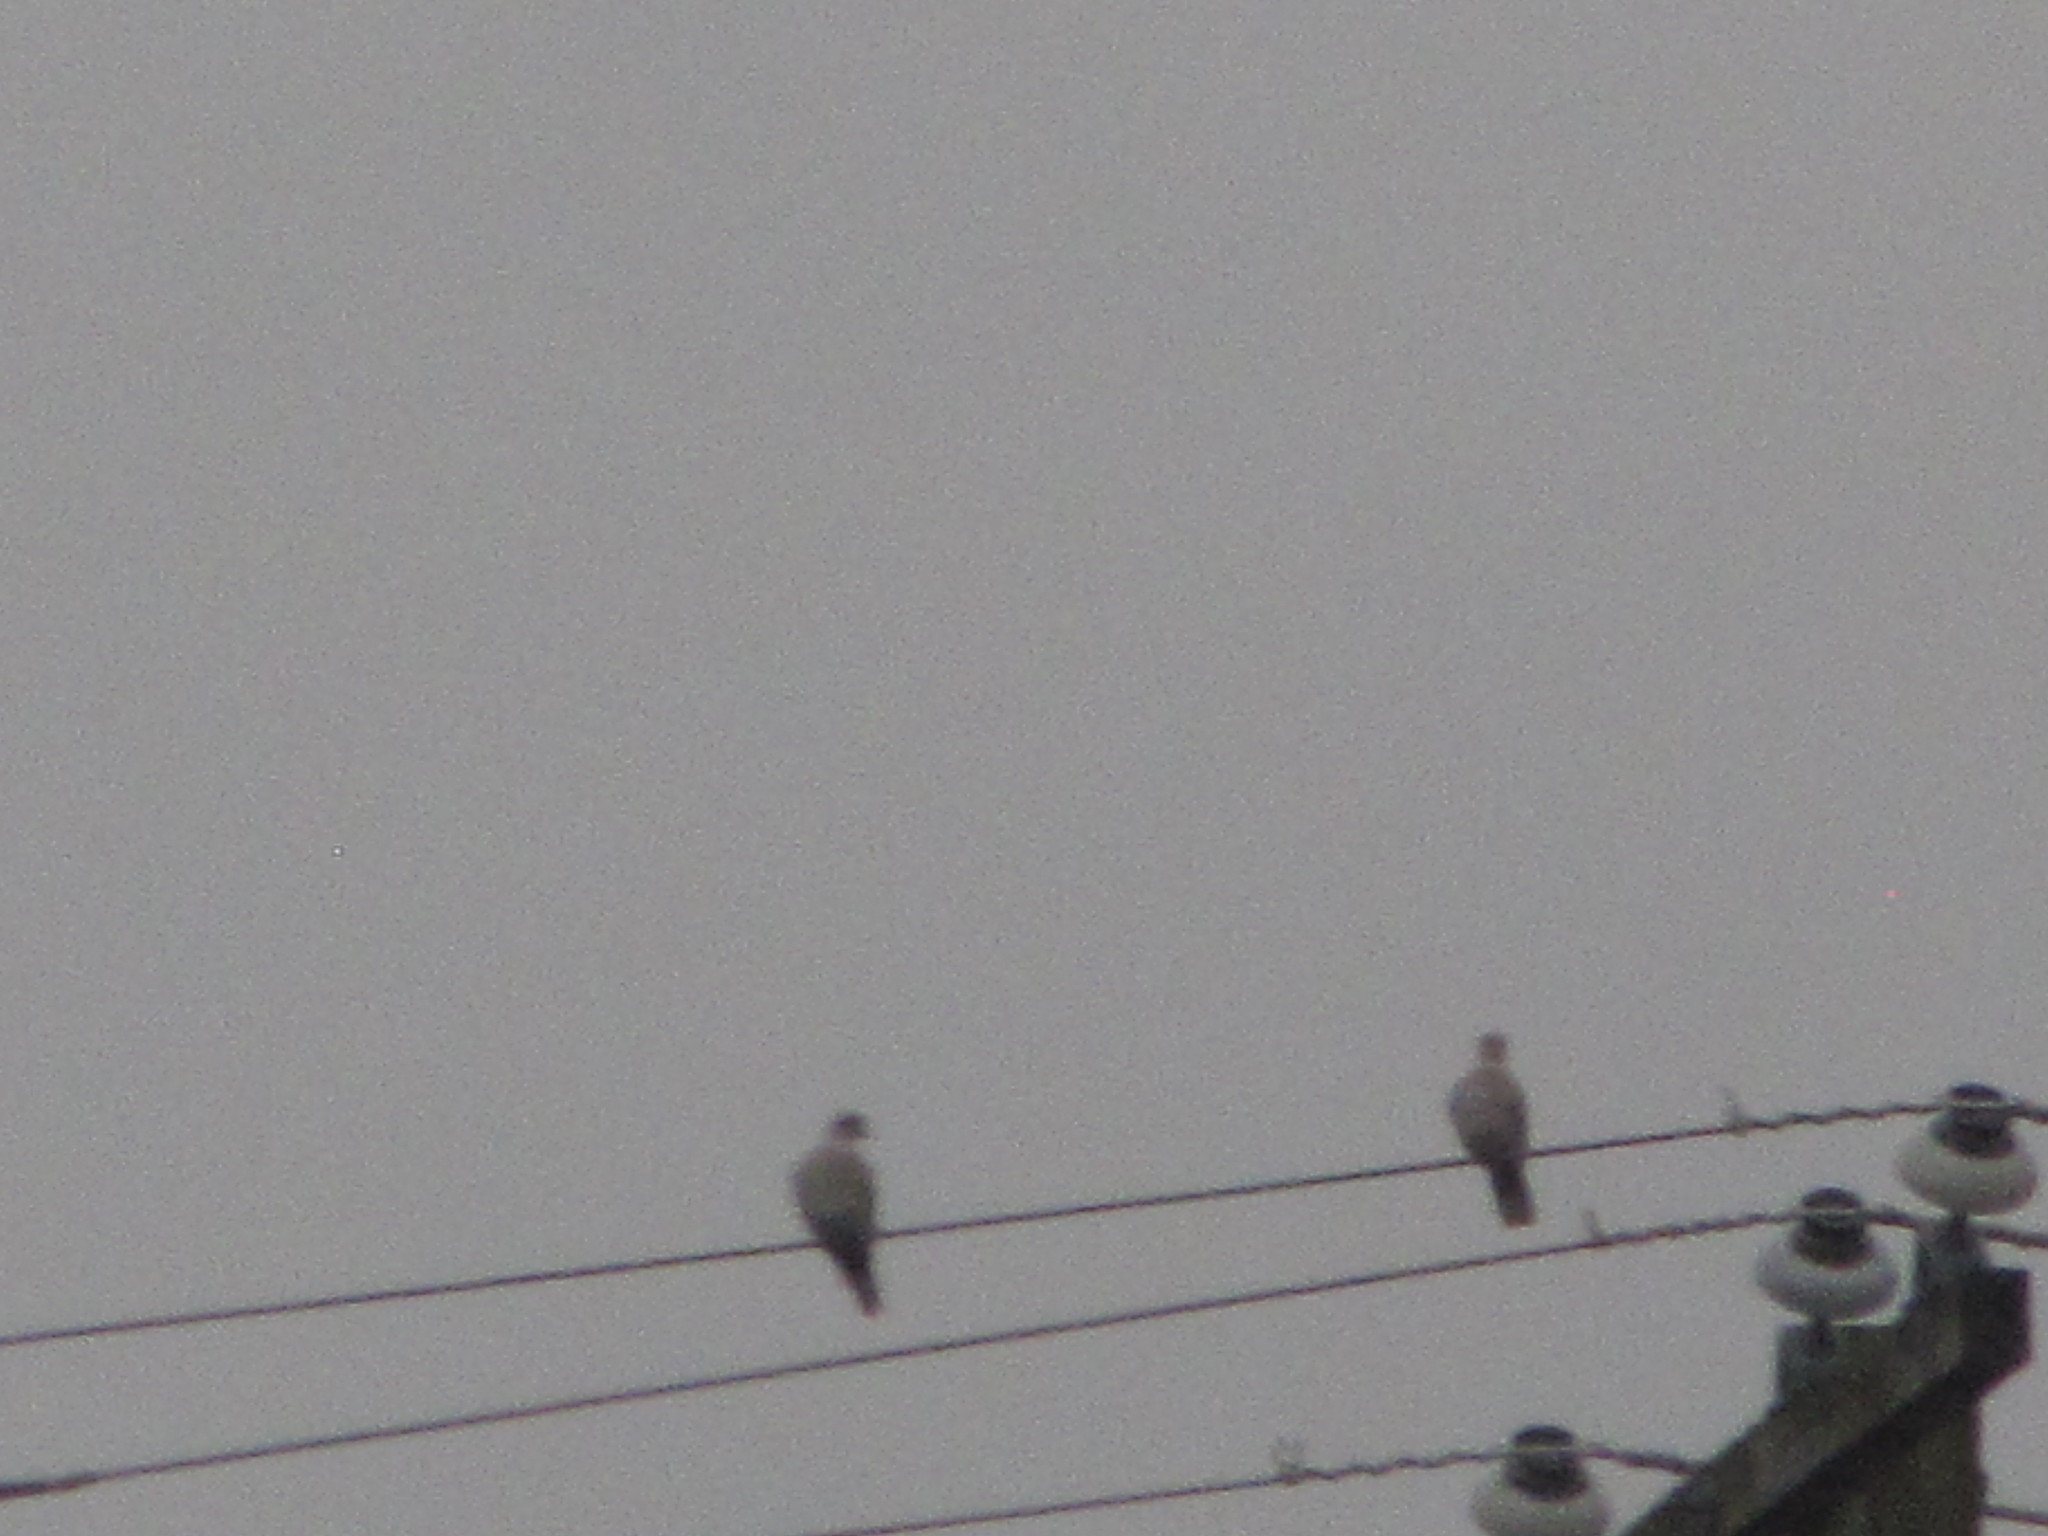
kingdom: Animalia
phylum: Chordata
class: Aves
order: Columbiformes
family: Columbidae
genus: Streptopelia
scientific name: Streptopelia decaocto
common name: Eurasian collared dove
